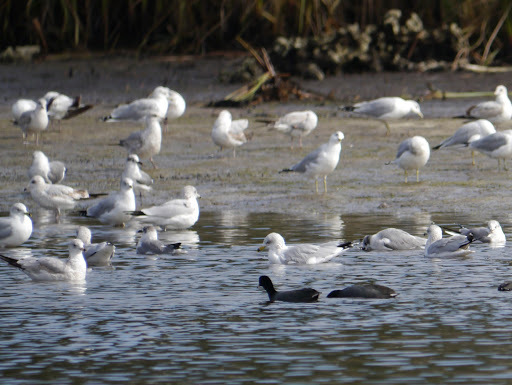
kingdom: Animalia
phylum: Chordata
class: Aves
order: Charadriiformes
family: Laridae
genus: Larus
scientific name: Larus delawarensis
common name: Ring-billed gull
